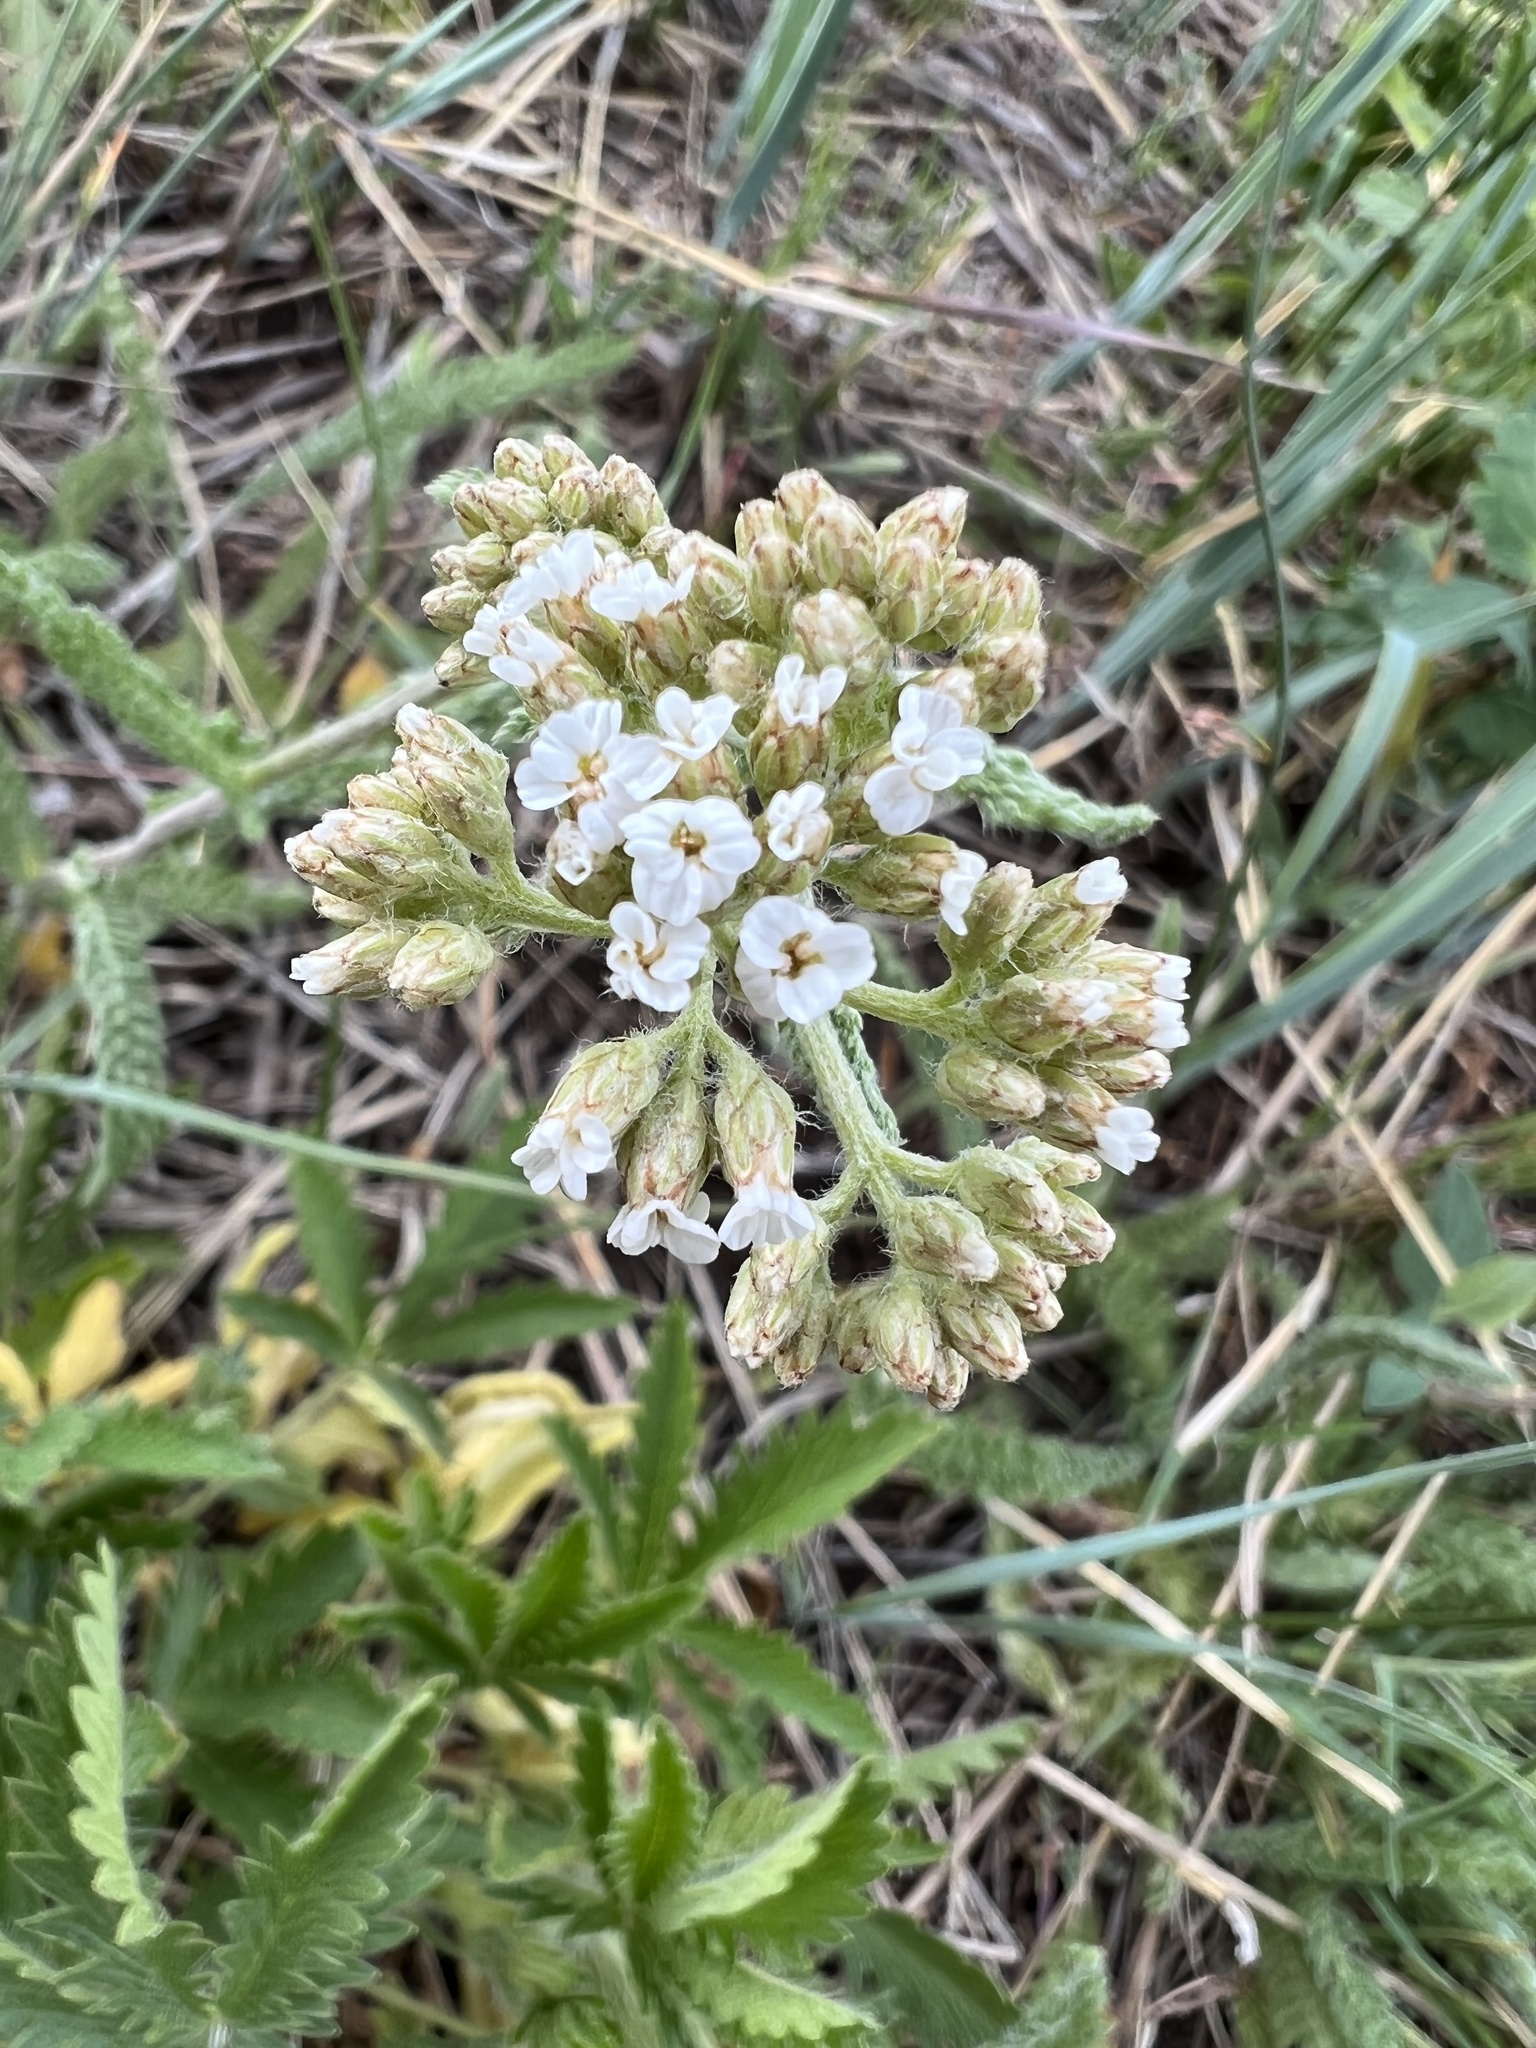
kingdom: Plantae
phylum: Tracheophyta
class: Magnoliopsida
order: Asterales
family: Asteraceae
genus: Achillea
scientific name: Achillea millefolium
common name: Yarrow
